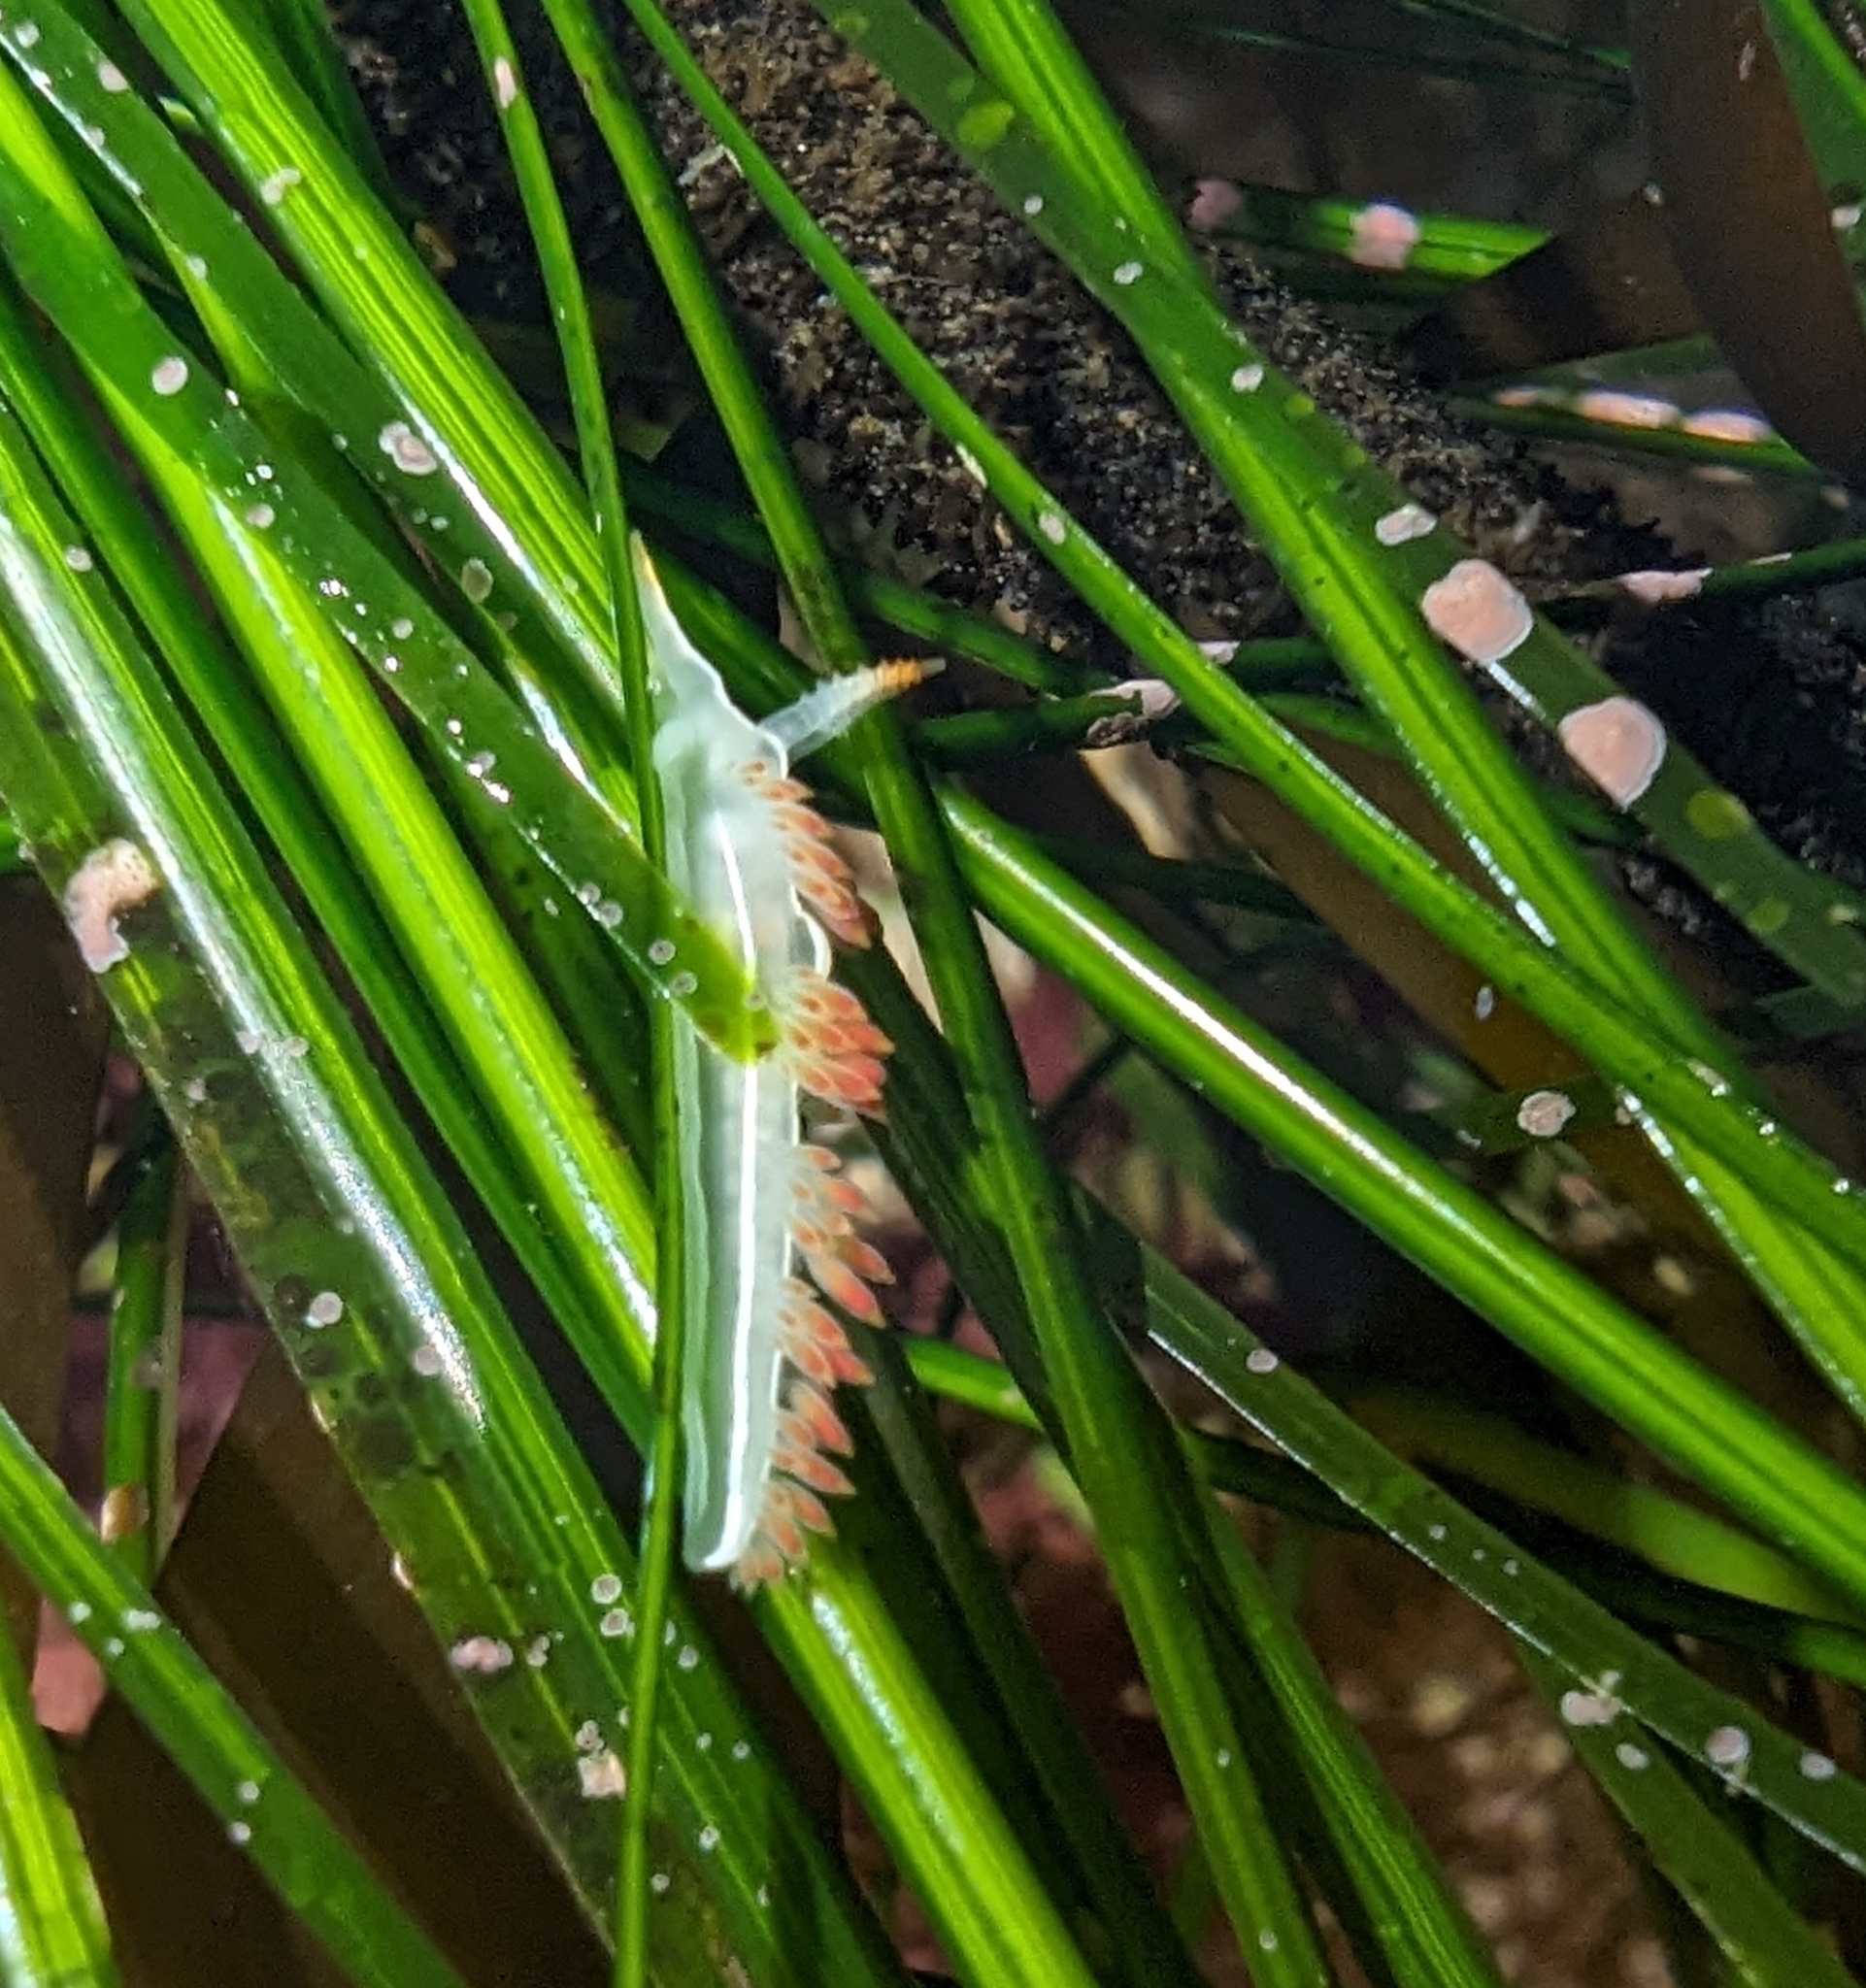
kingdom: Animalia
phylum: Mollusca
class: Gastropoda
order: Nudibranchia
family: Coryphellidae
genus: Coryphella
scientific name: Coryphella trilineata
